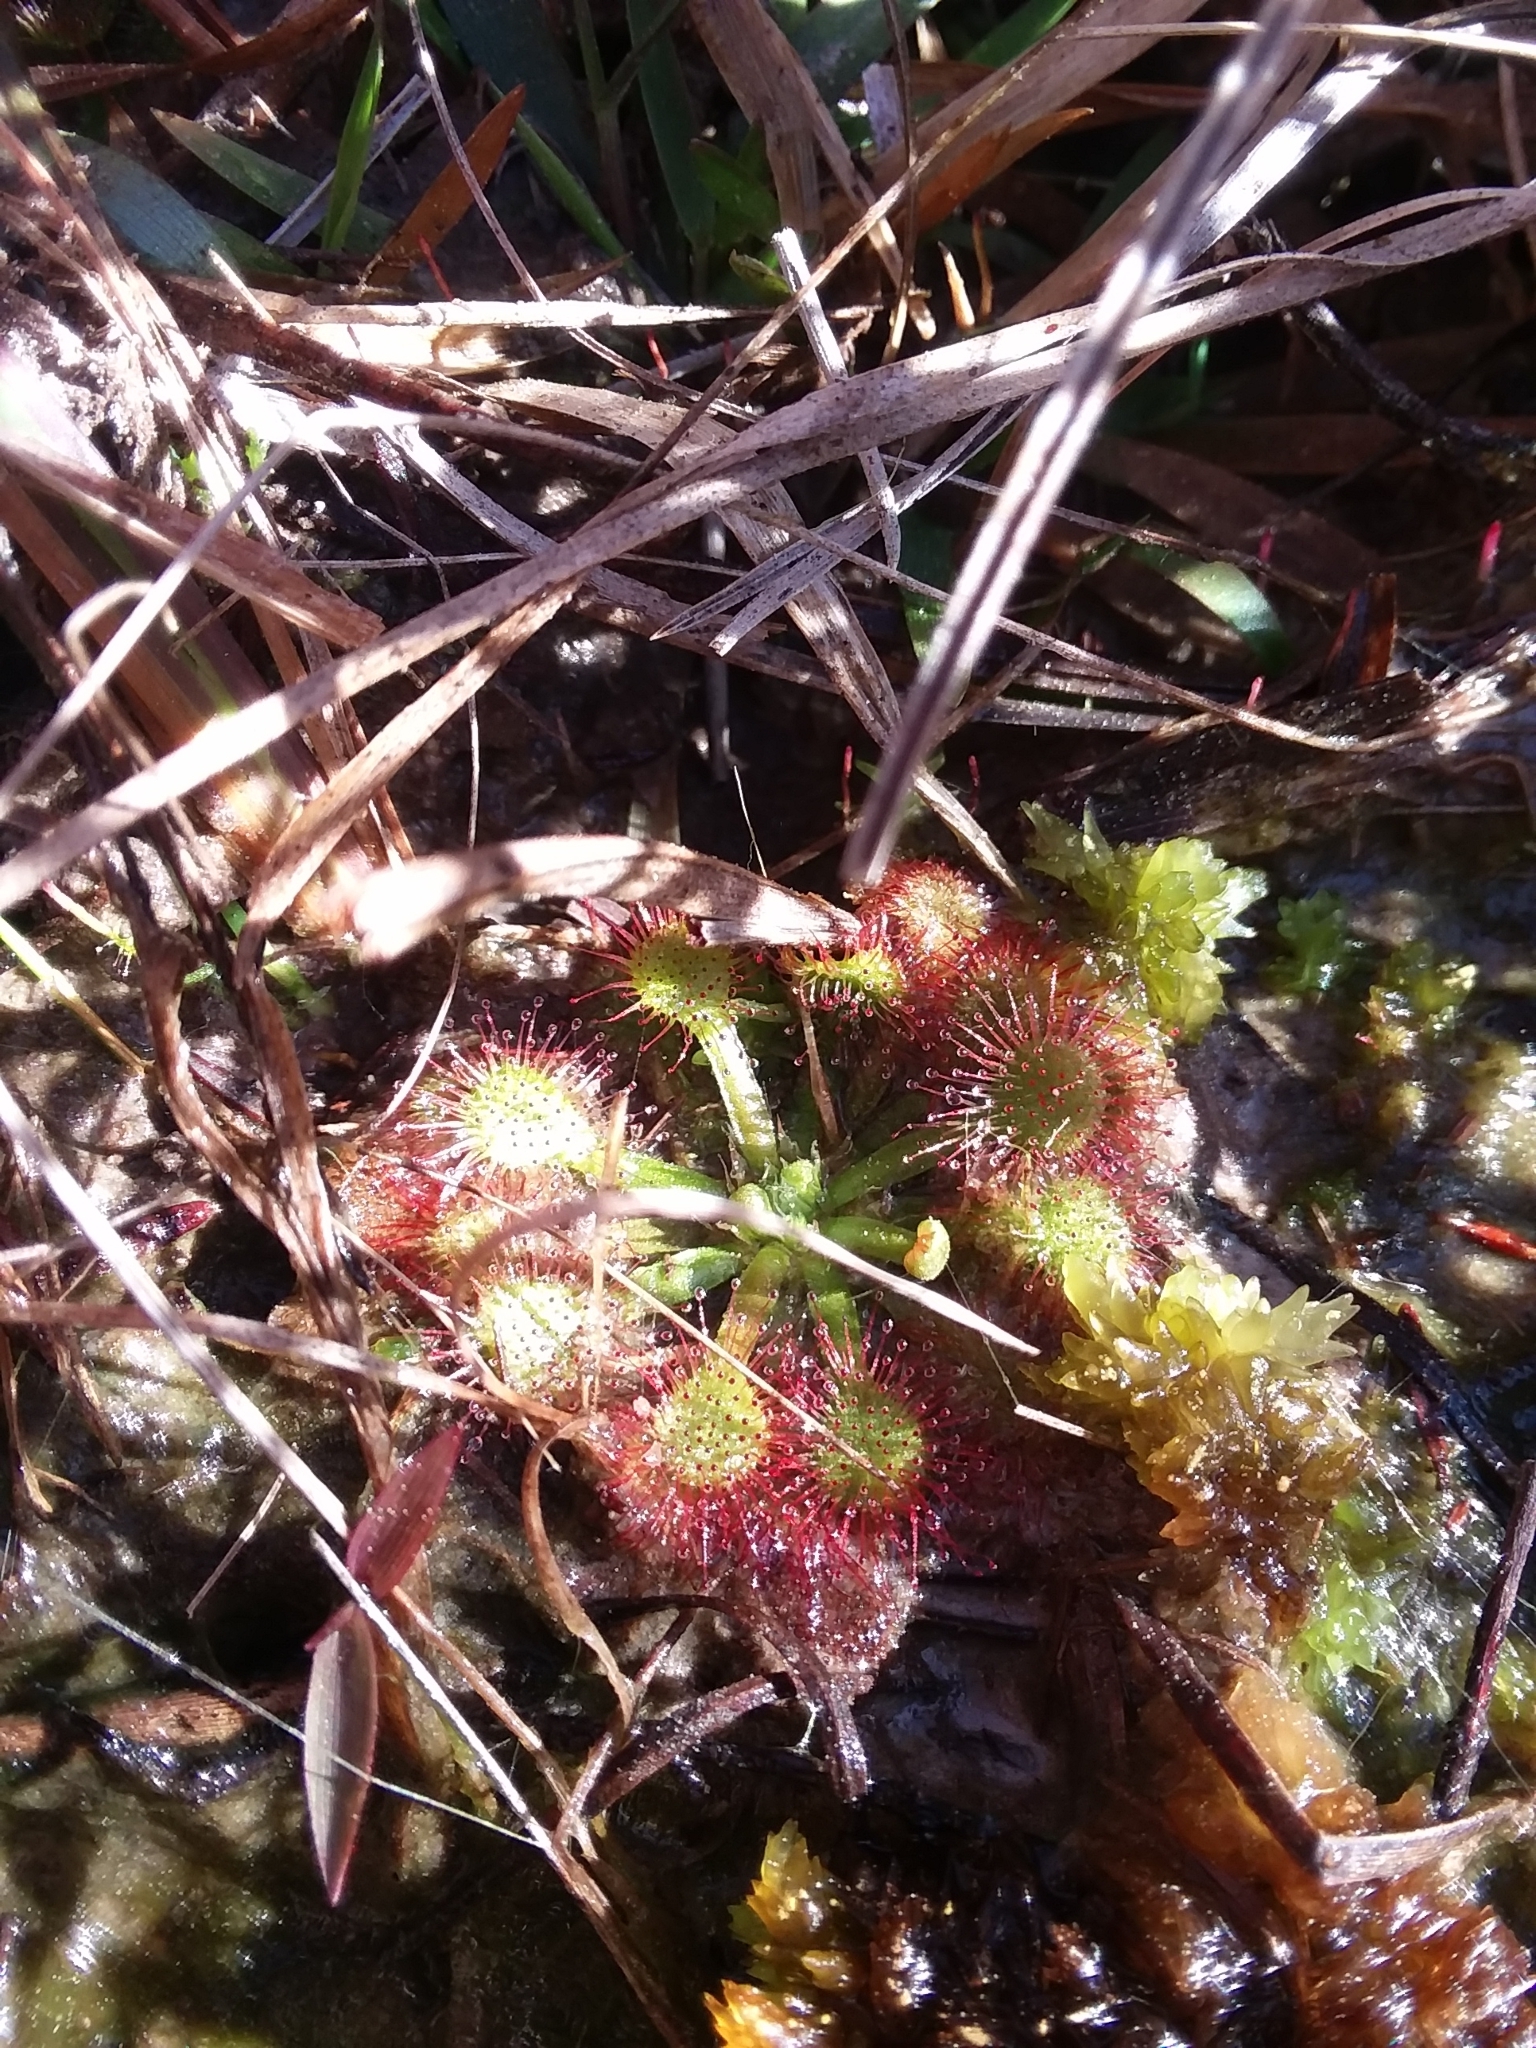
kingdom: Plantae
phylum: Tracheophyta
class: Magnoliopsida
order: Caryophyllales
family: Droseraceae
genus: Drosera
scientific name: Drosera capillaris
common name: Pink sundew
